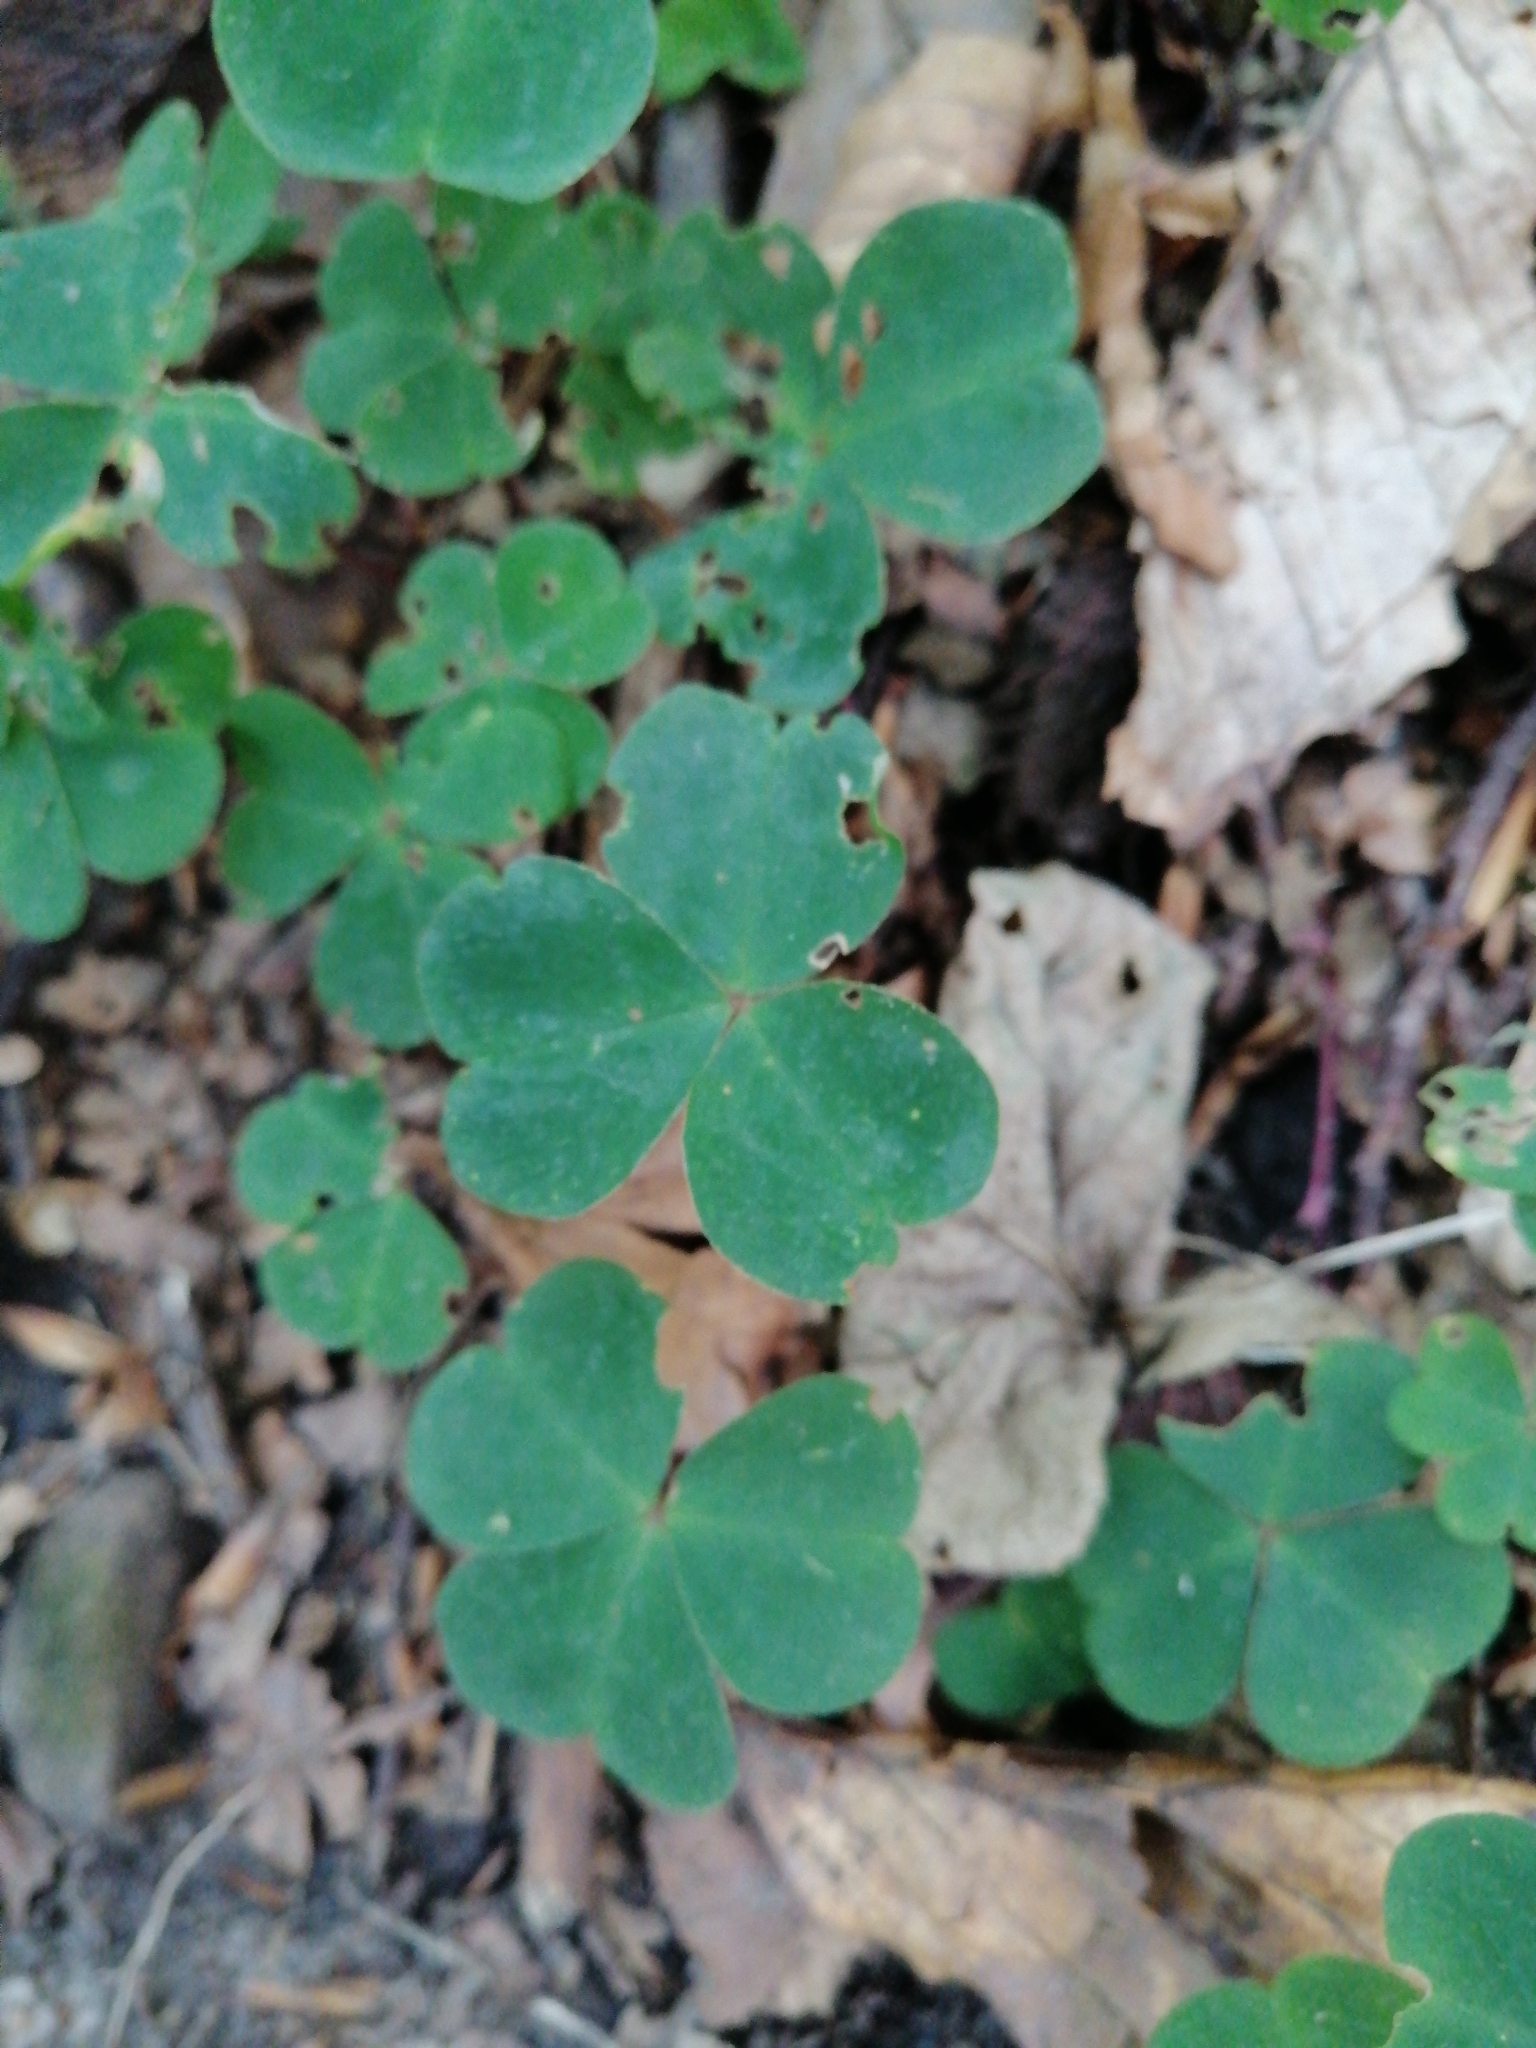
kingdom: Plantae
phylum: Tracheophyta
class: Magnoliopsida
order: Oxalidales
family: Oxalidaceae
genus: Oxalis
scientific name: Oxalis acetosella
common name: Wood-sorrel
